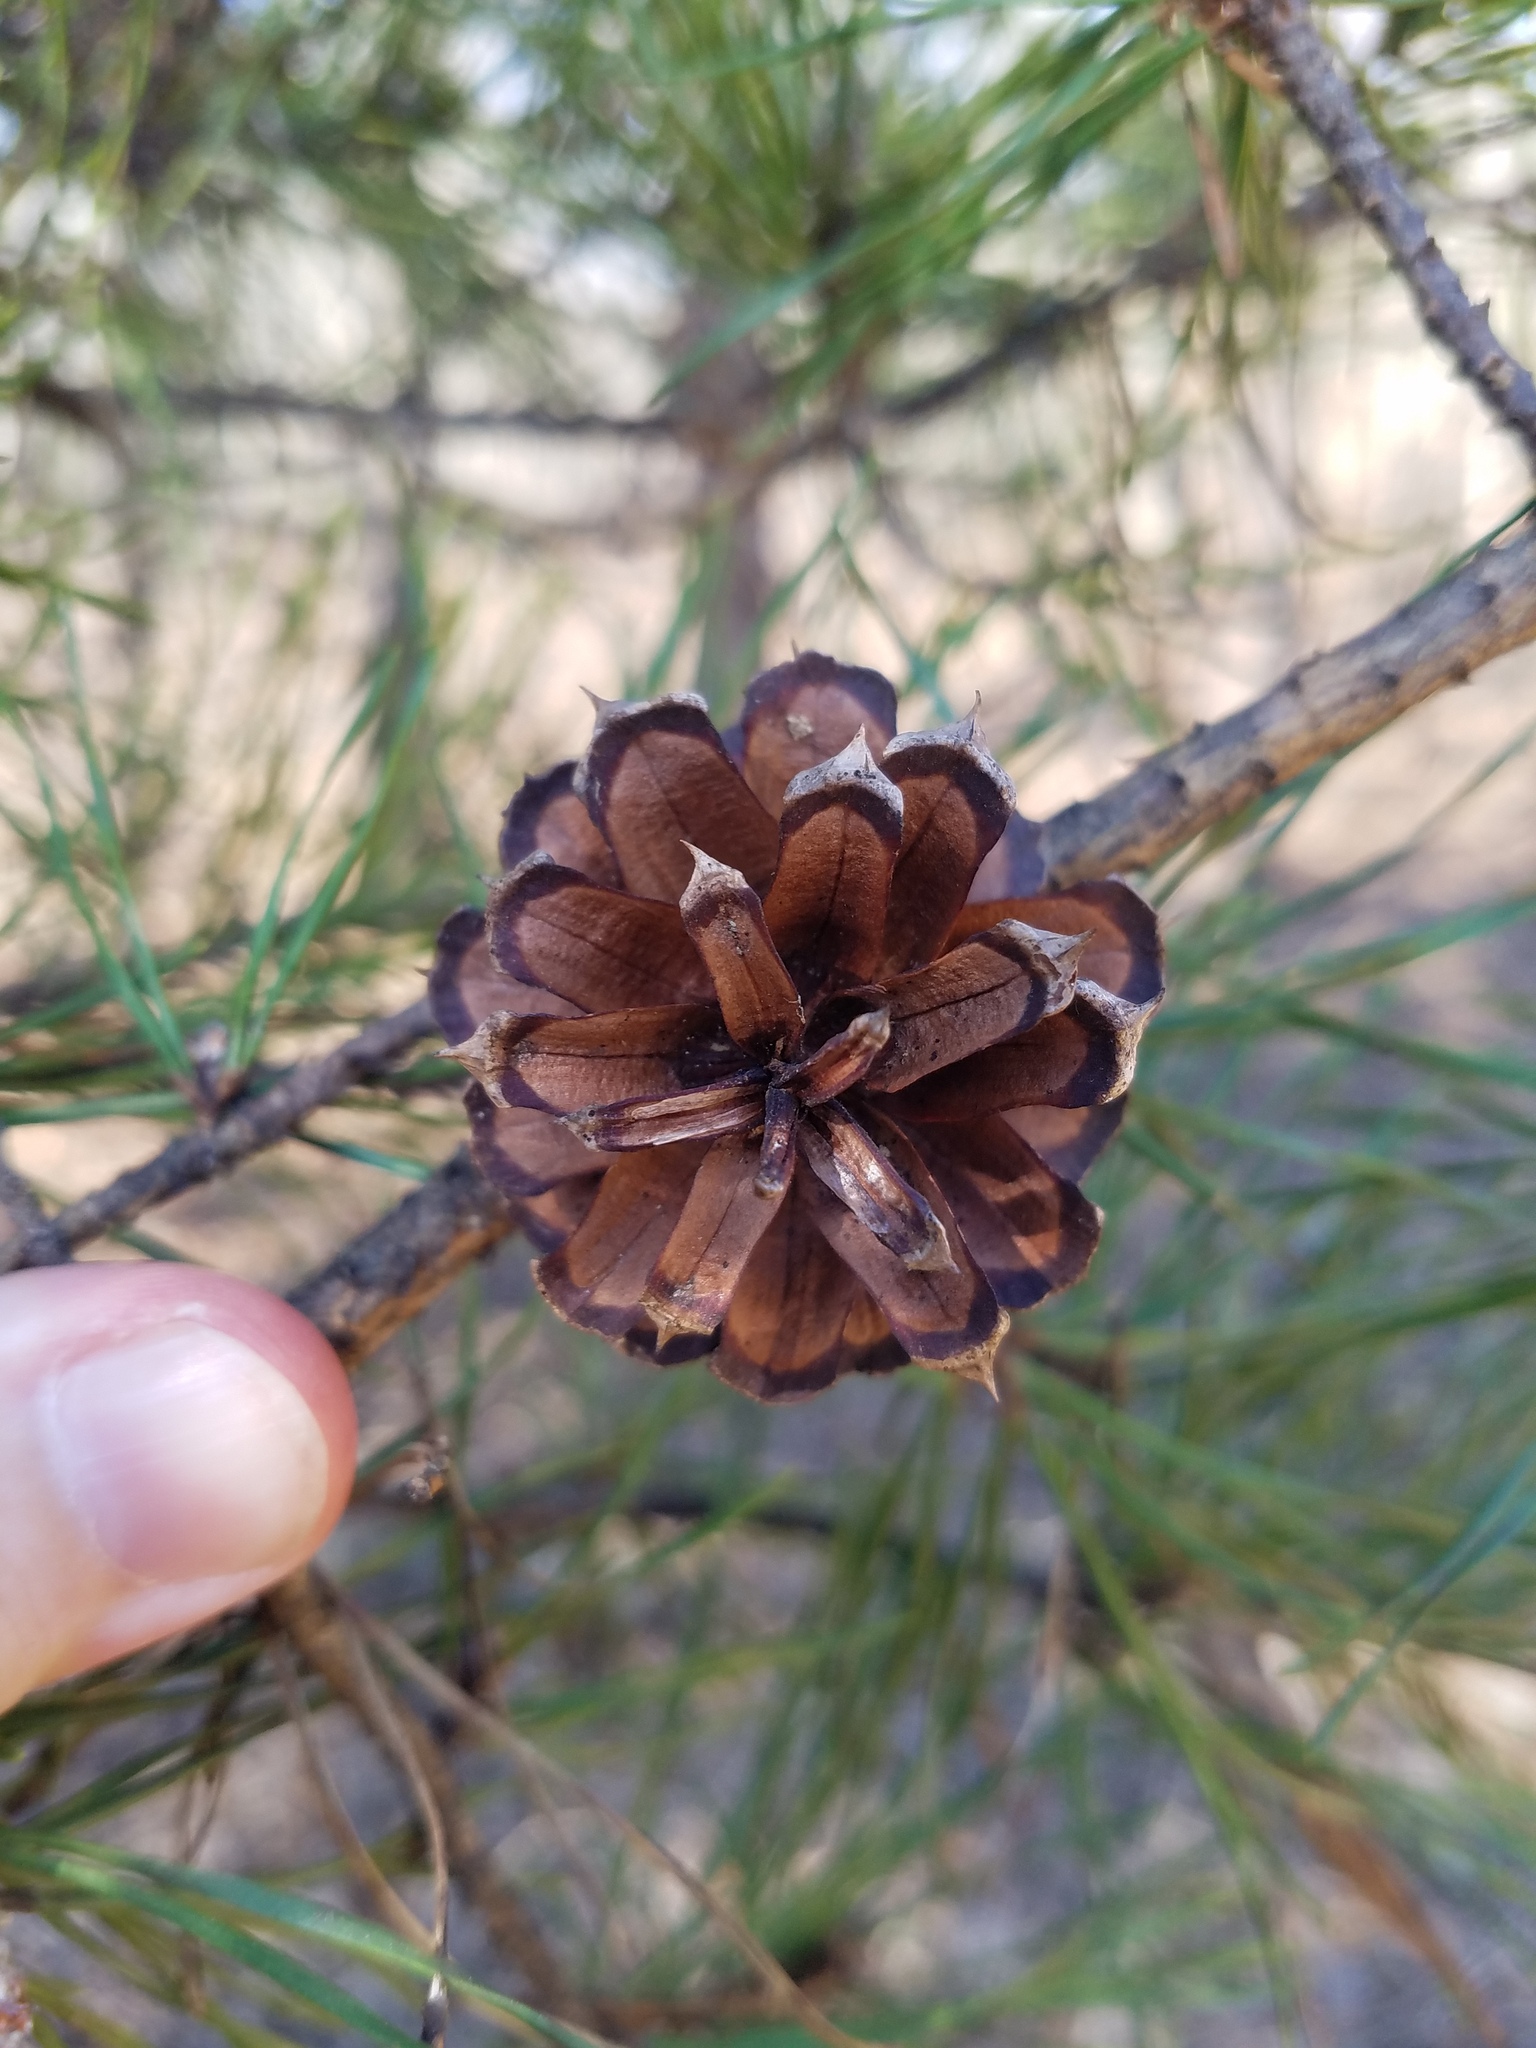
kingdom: Plantae
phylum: Tracheophyta
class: Pinopsida
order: Pinales
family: Pinaceae
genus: Pinus
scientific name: Pinus virginiana
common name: Scrub pine
